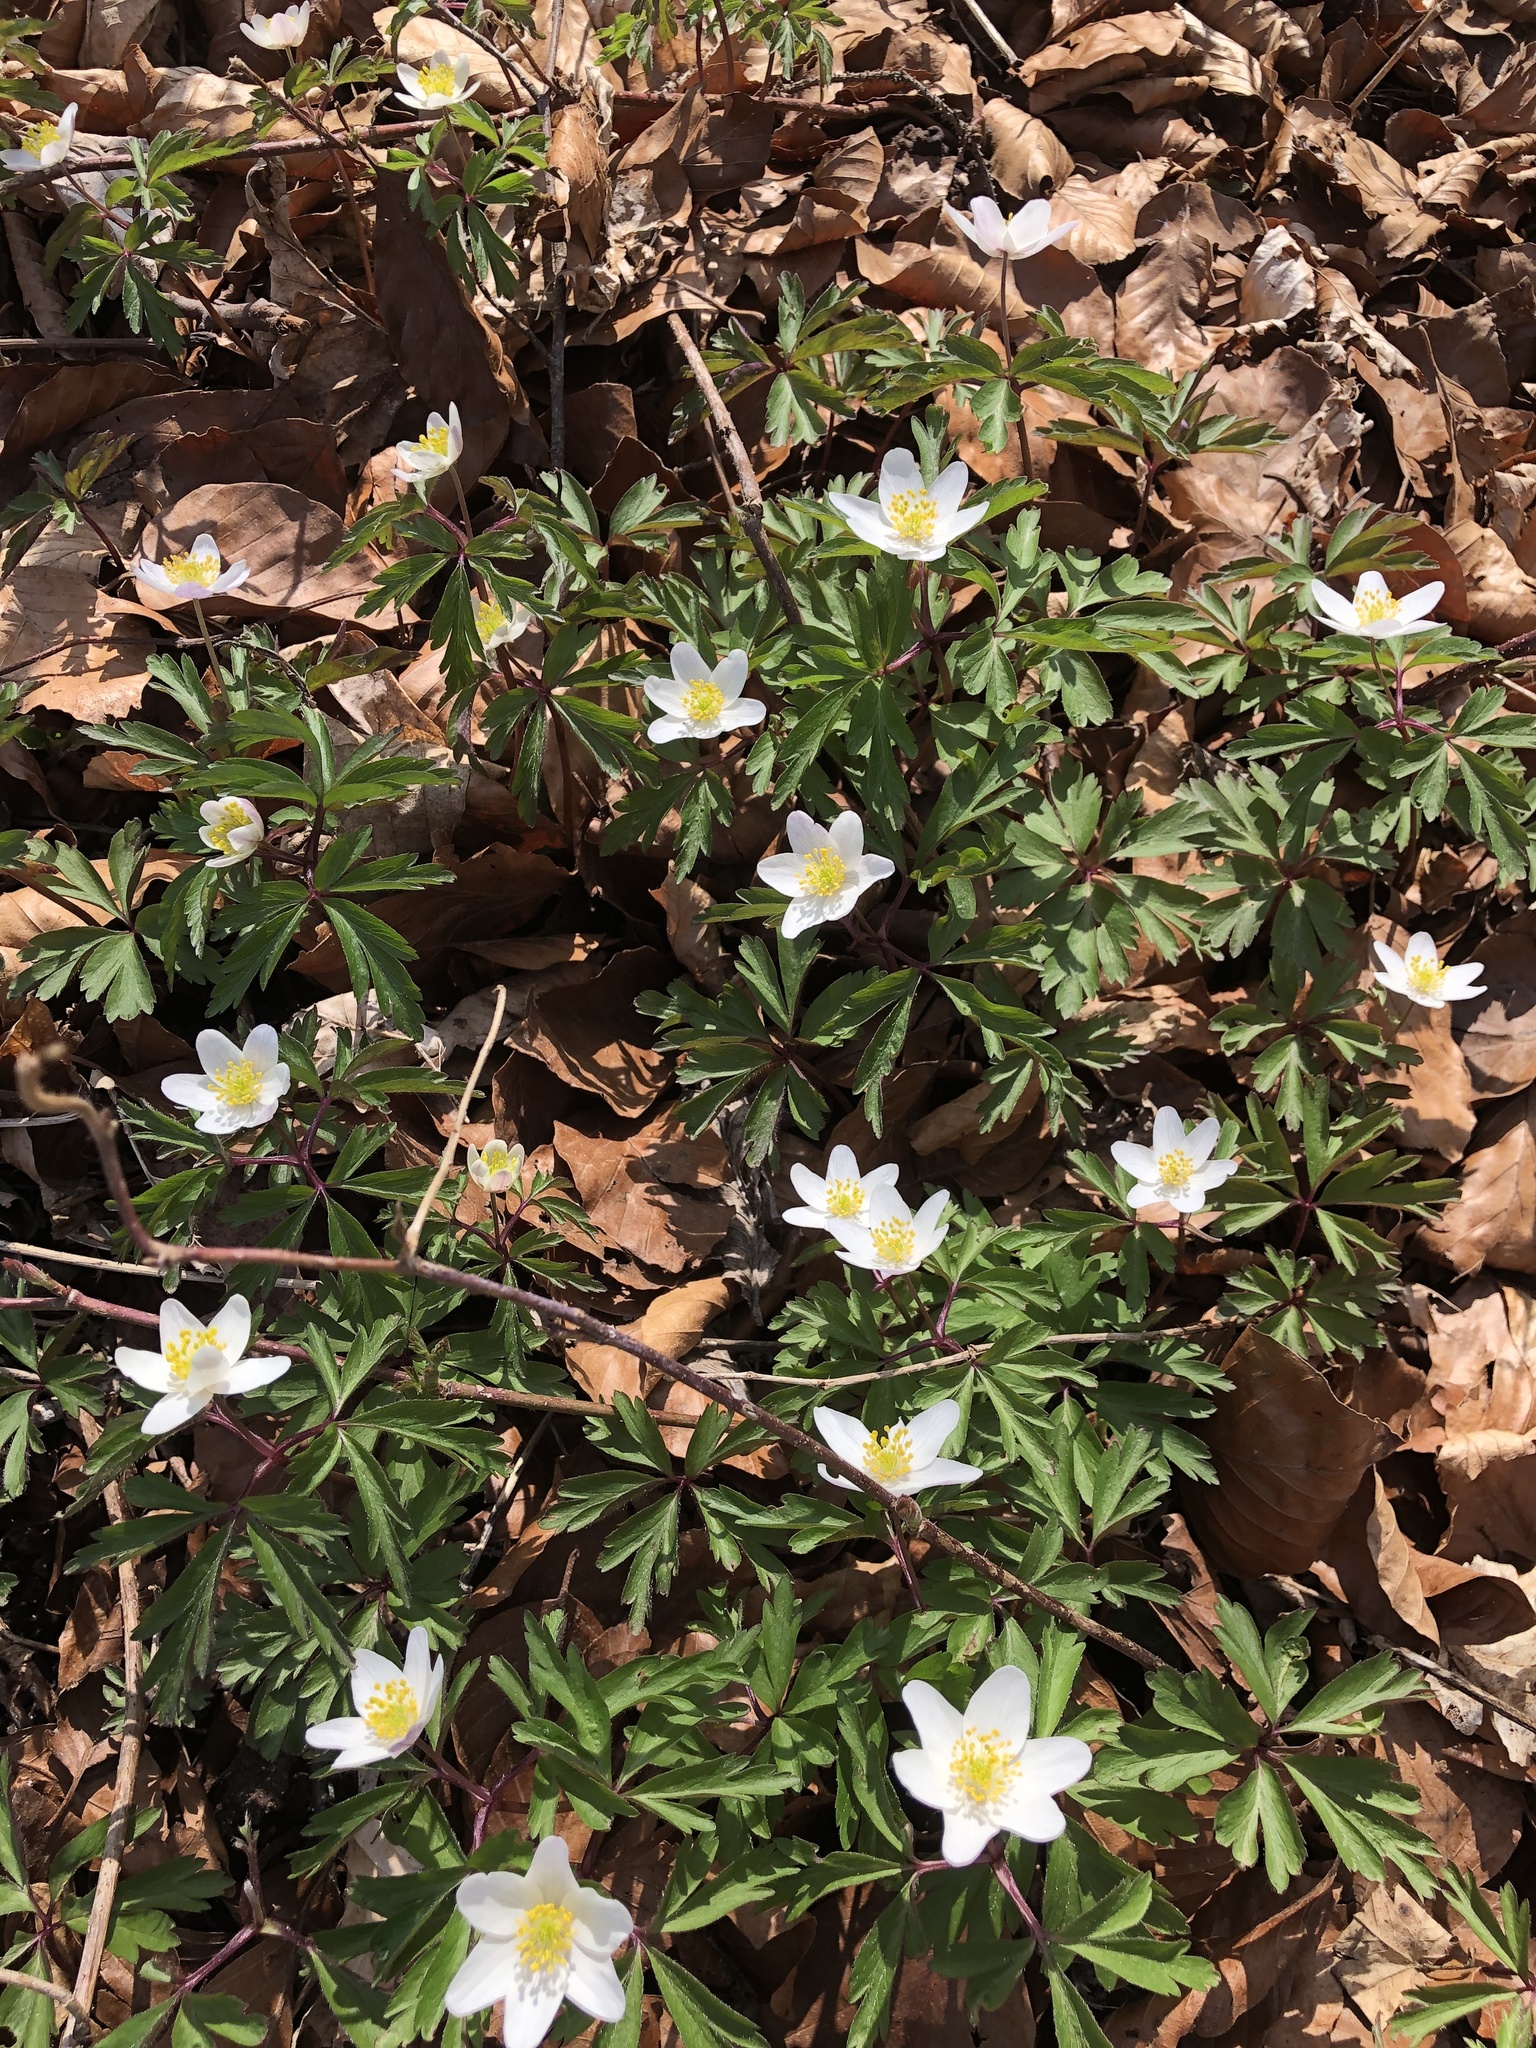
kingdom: Plantae
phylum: Tracheophyta
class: Magnoliopsida
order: Ranunculales
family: Ranunculaceae
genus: Anemone
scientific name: Anemone nemorosa
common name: Wood anemone
